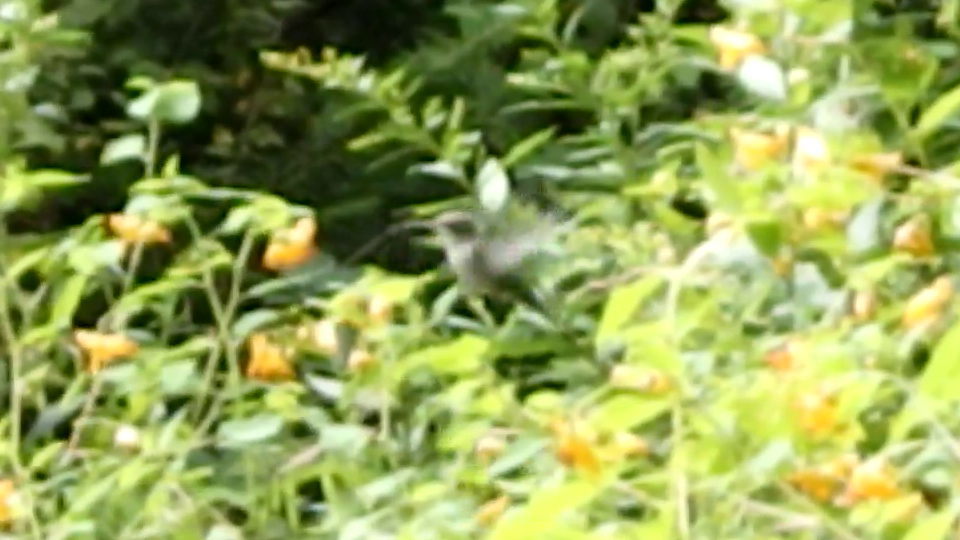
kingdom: Animalia
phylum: Chordata
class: Aves
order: Apodiformes
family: Trochilidae
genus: Archilochus
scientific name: Archilochus colubris
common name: Ruby-throated hummingbird
